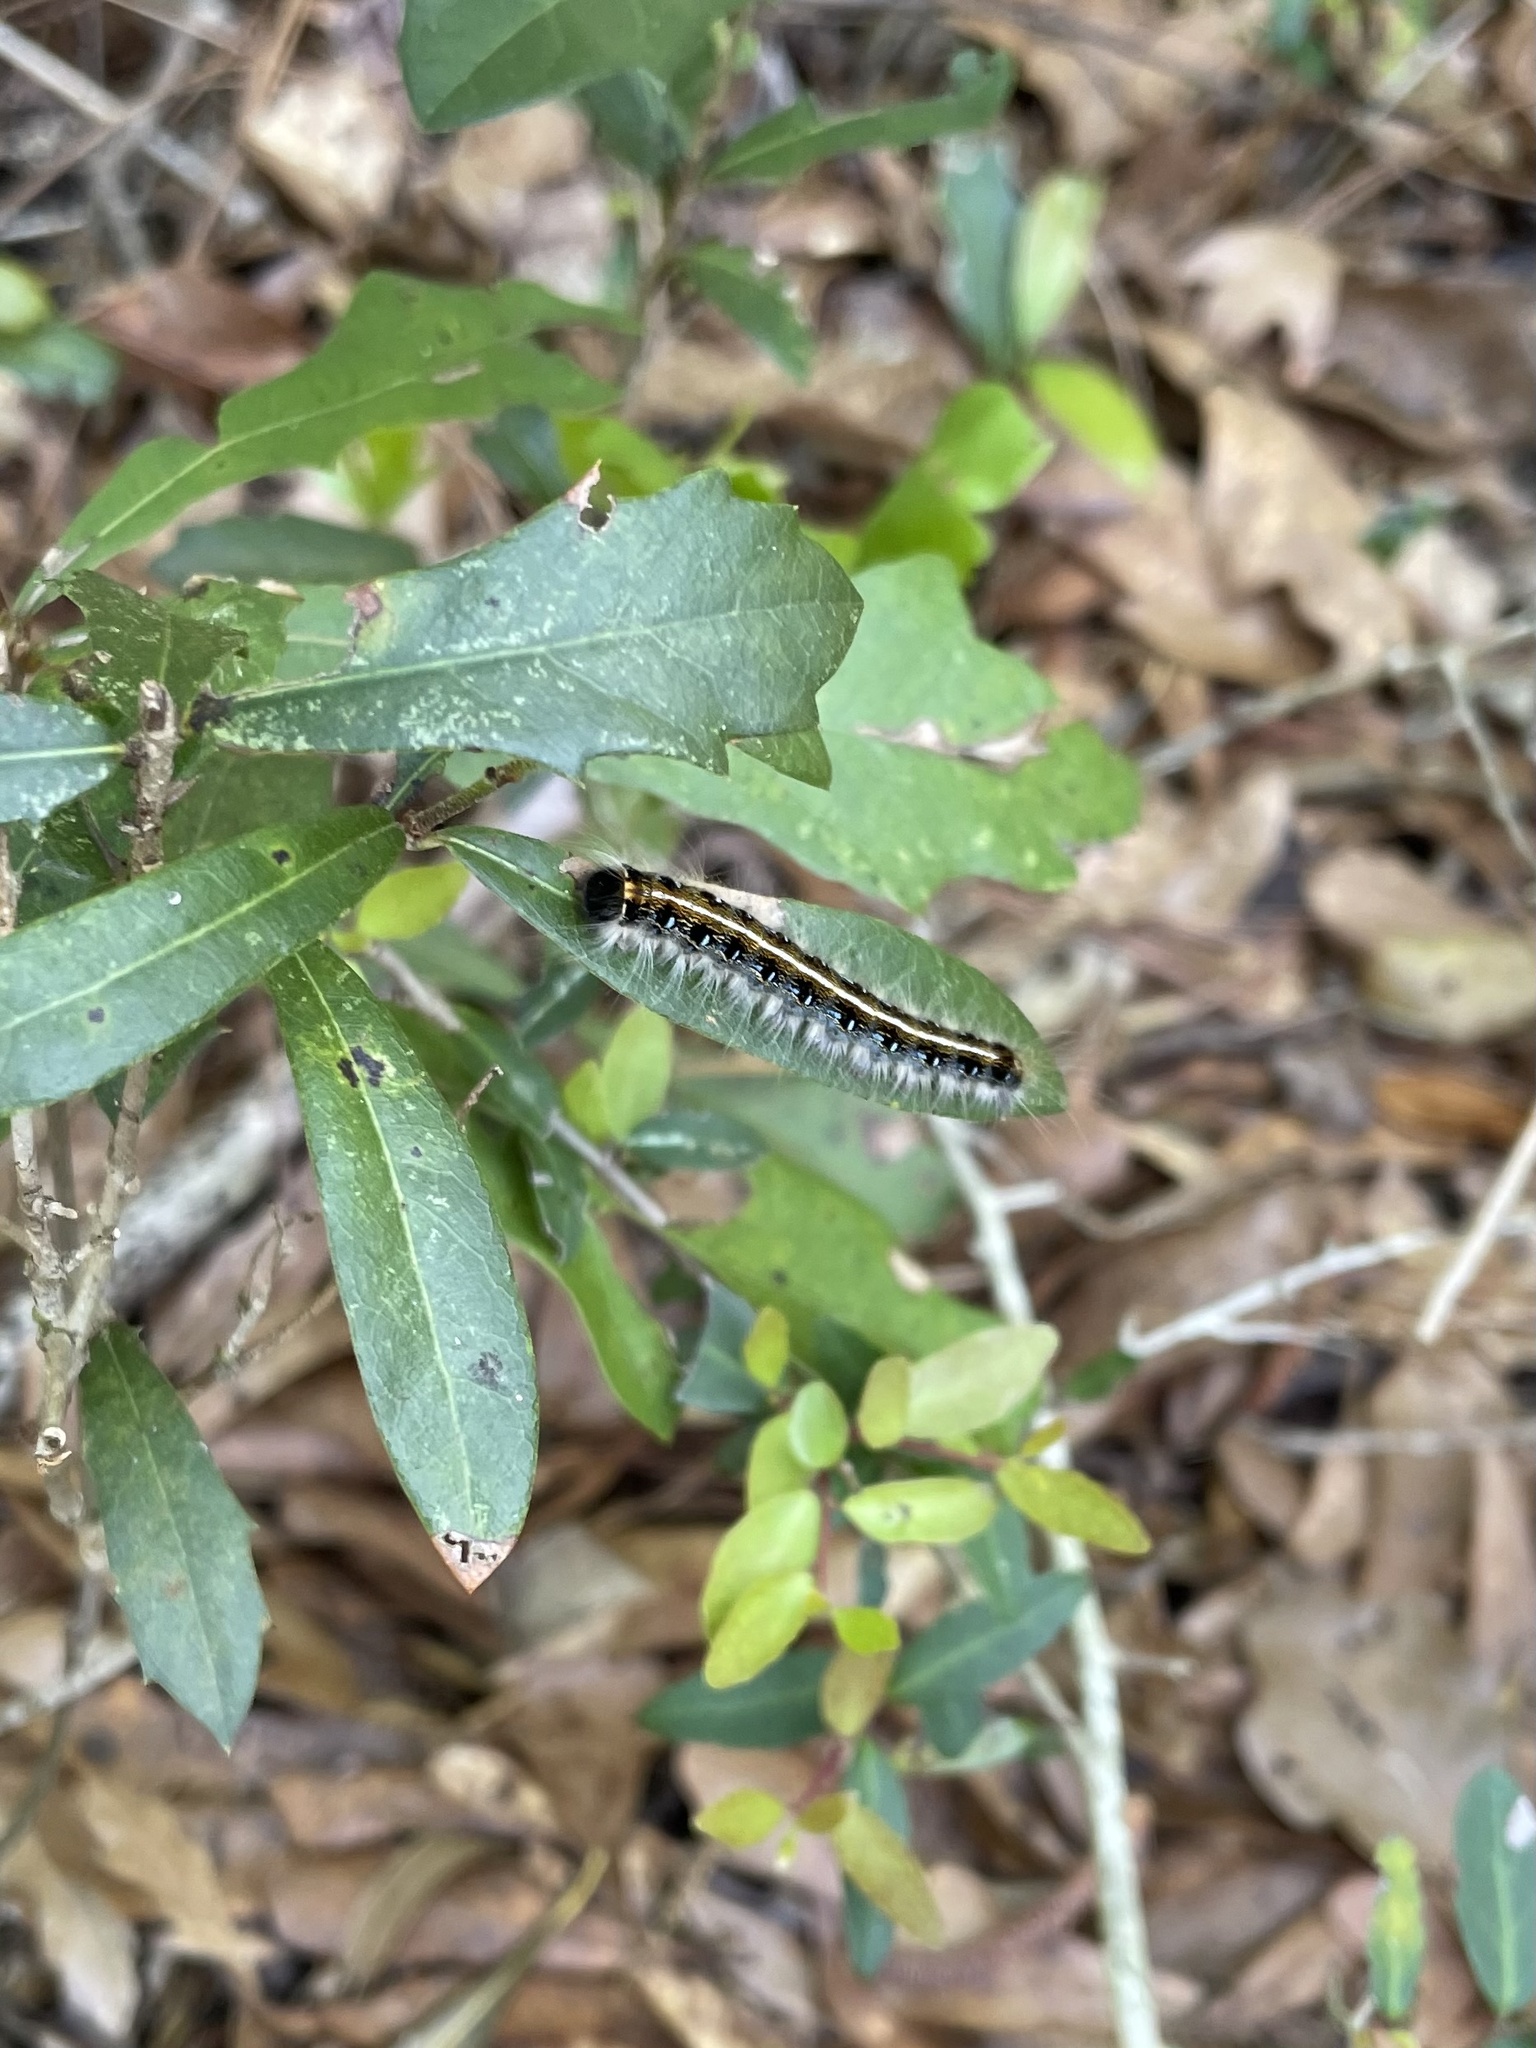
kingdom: Animalia
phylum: Arthropoda
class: Insecta
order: Lepidoptera
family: Lasiocampidae
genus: Malacosoma
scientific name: Malacosoma americana
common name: Eastern tent caterpillar moth
